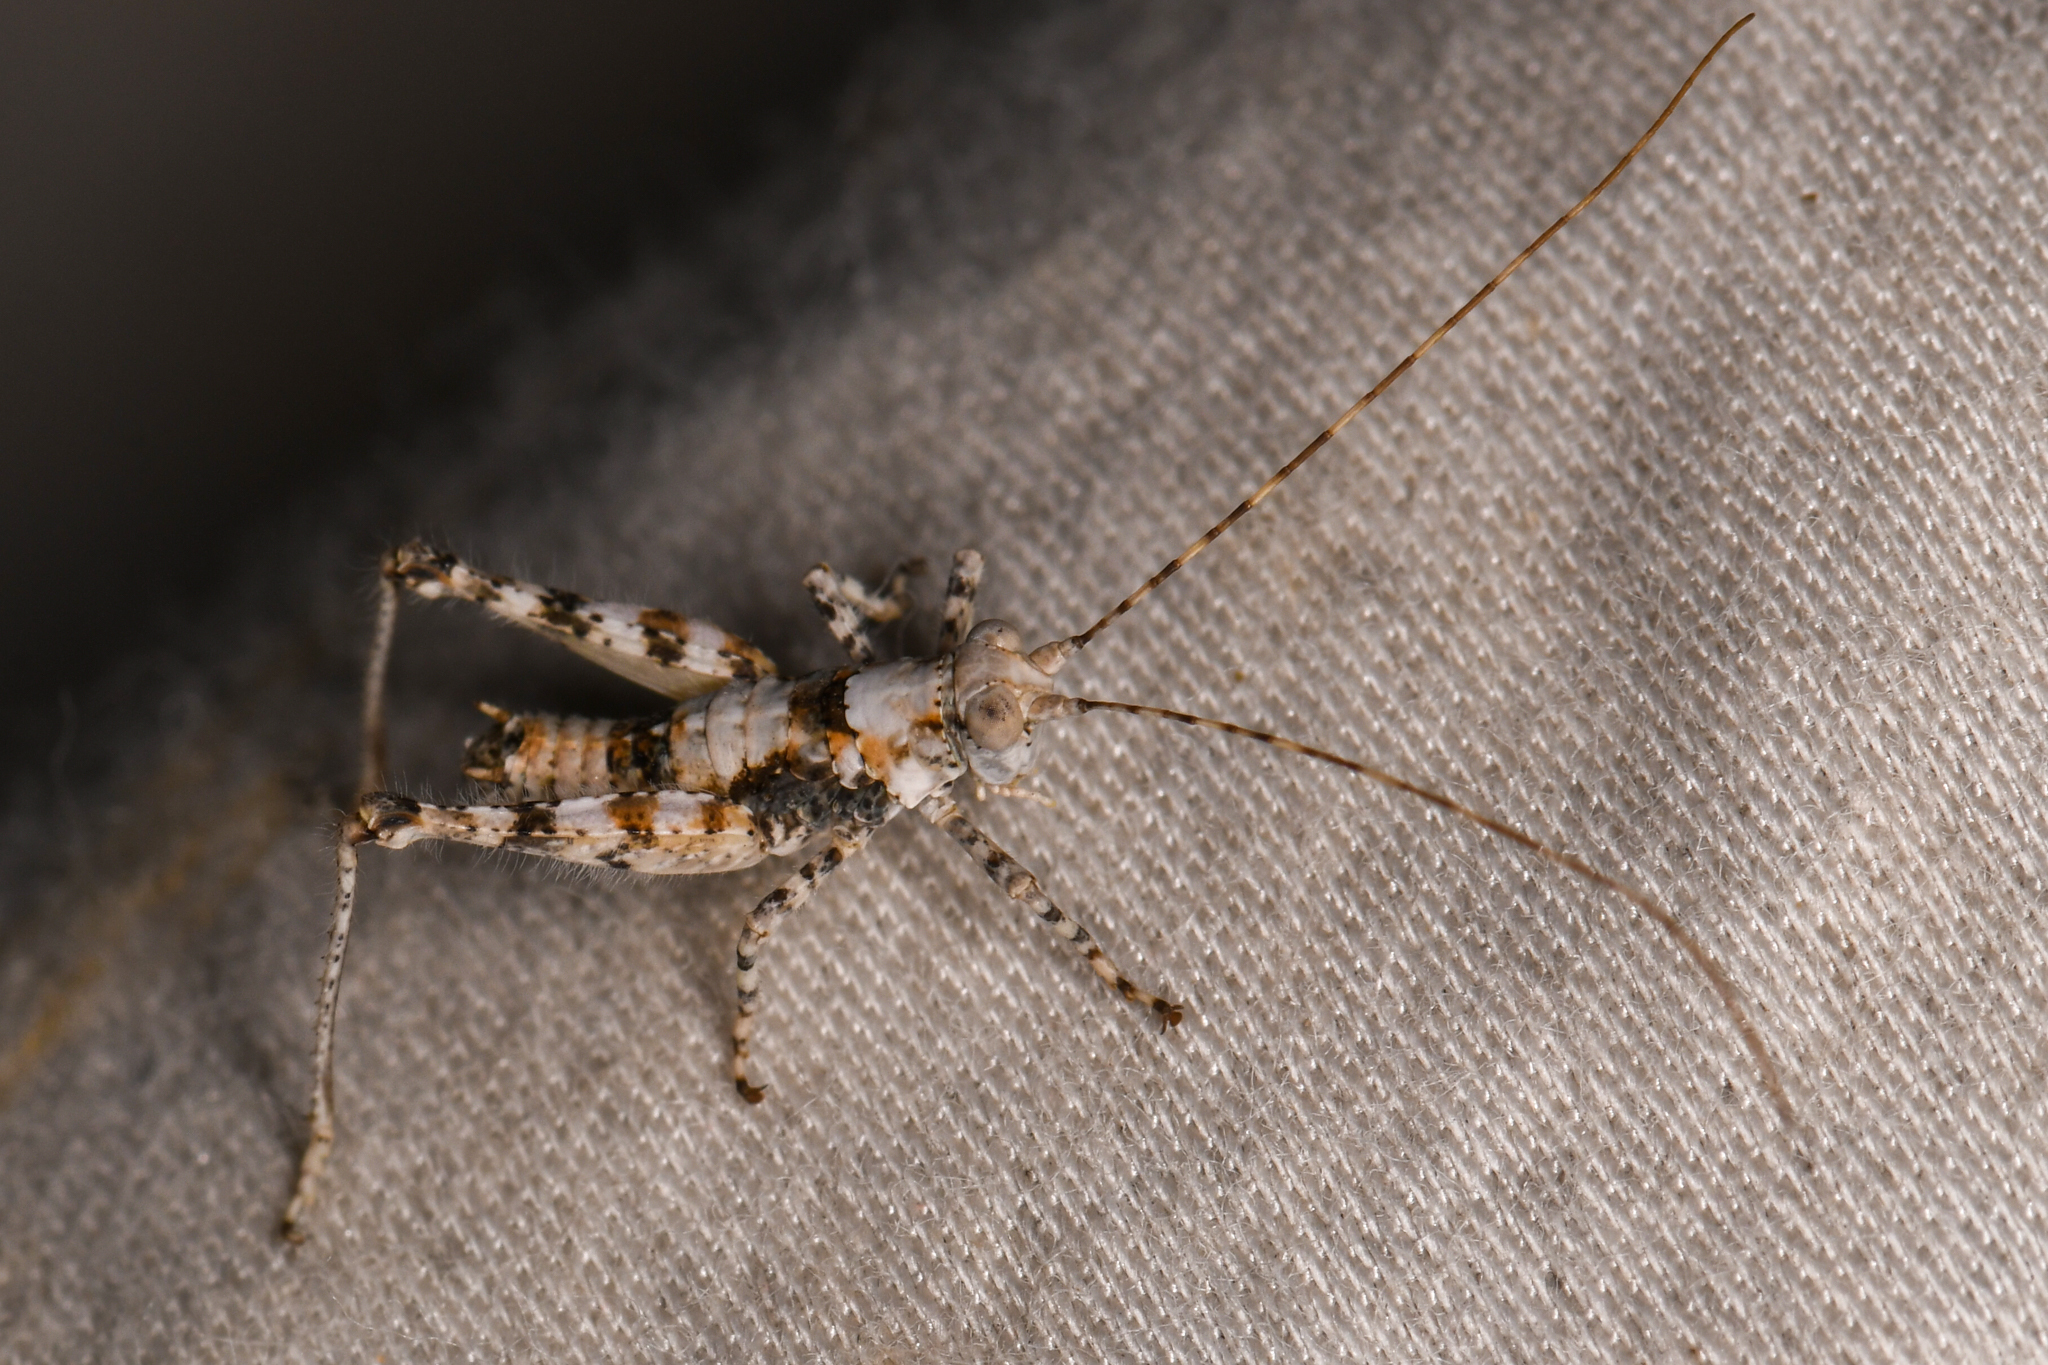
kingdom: Animalia
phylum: Arthropoda
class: Insecta
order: Orthoptera
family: Tanaoceridae
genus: Tanaocerus
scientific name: Tanaocerus koebelei
